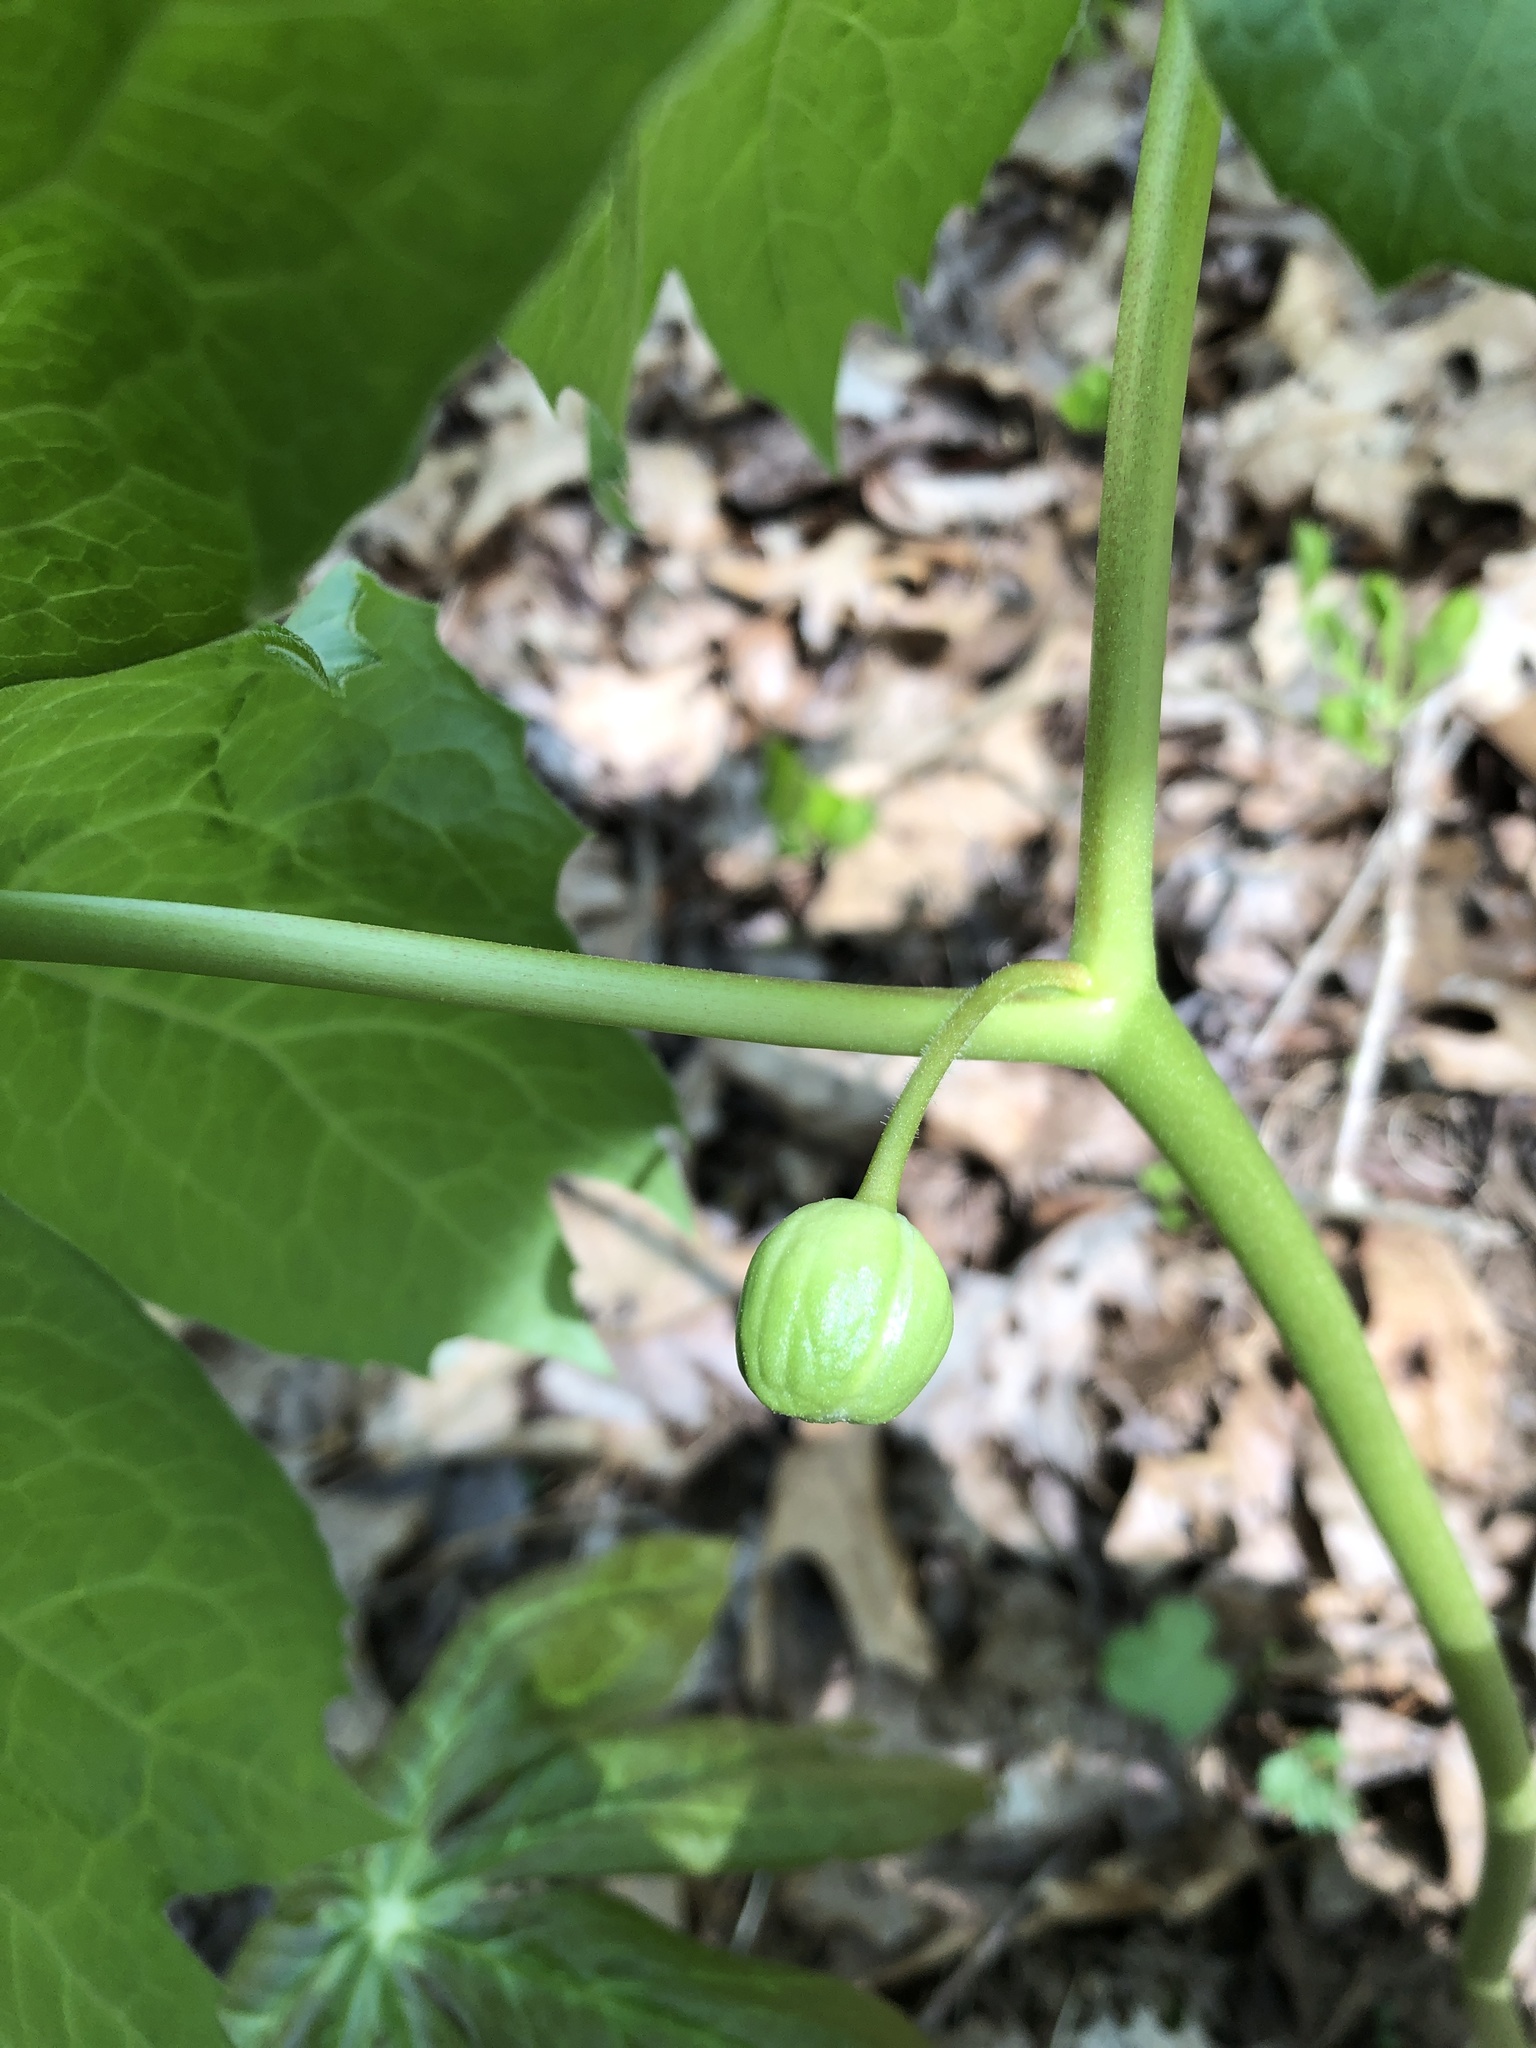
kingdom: Plantae
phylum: Tracheophyta
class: Magnoliopsida
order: Ranunculales
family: Berberidaceae
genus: Podophyllum
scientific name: Podophyllum peltatum
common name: Wild mandrake
